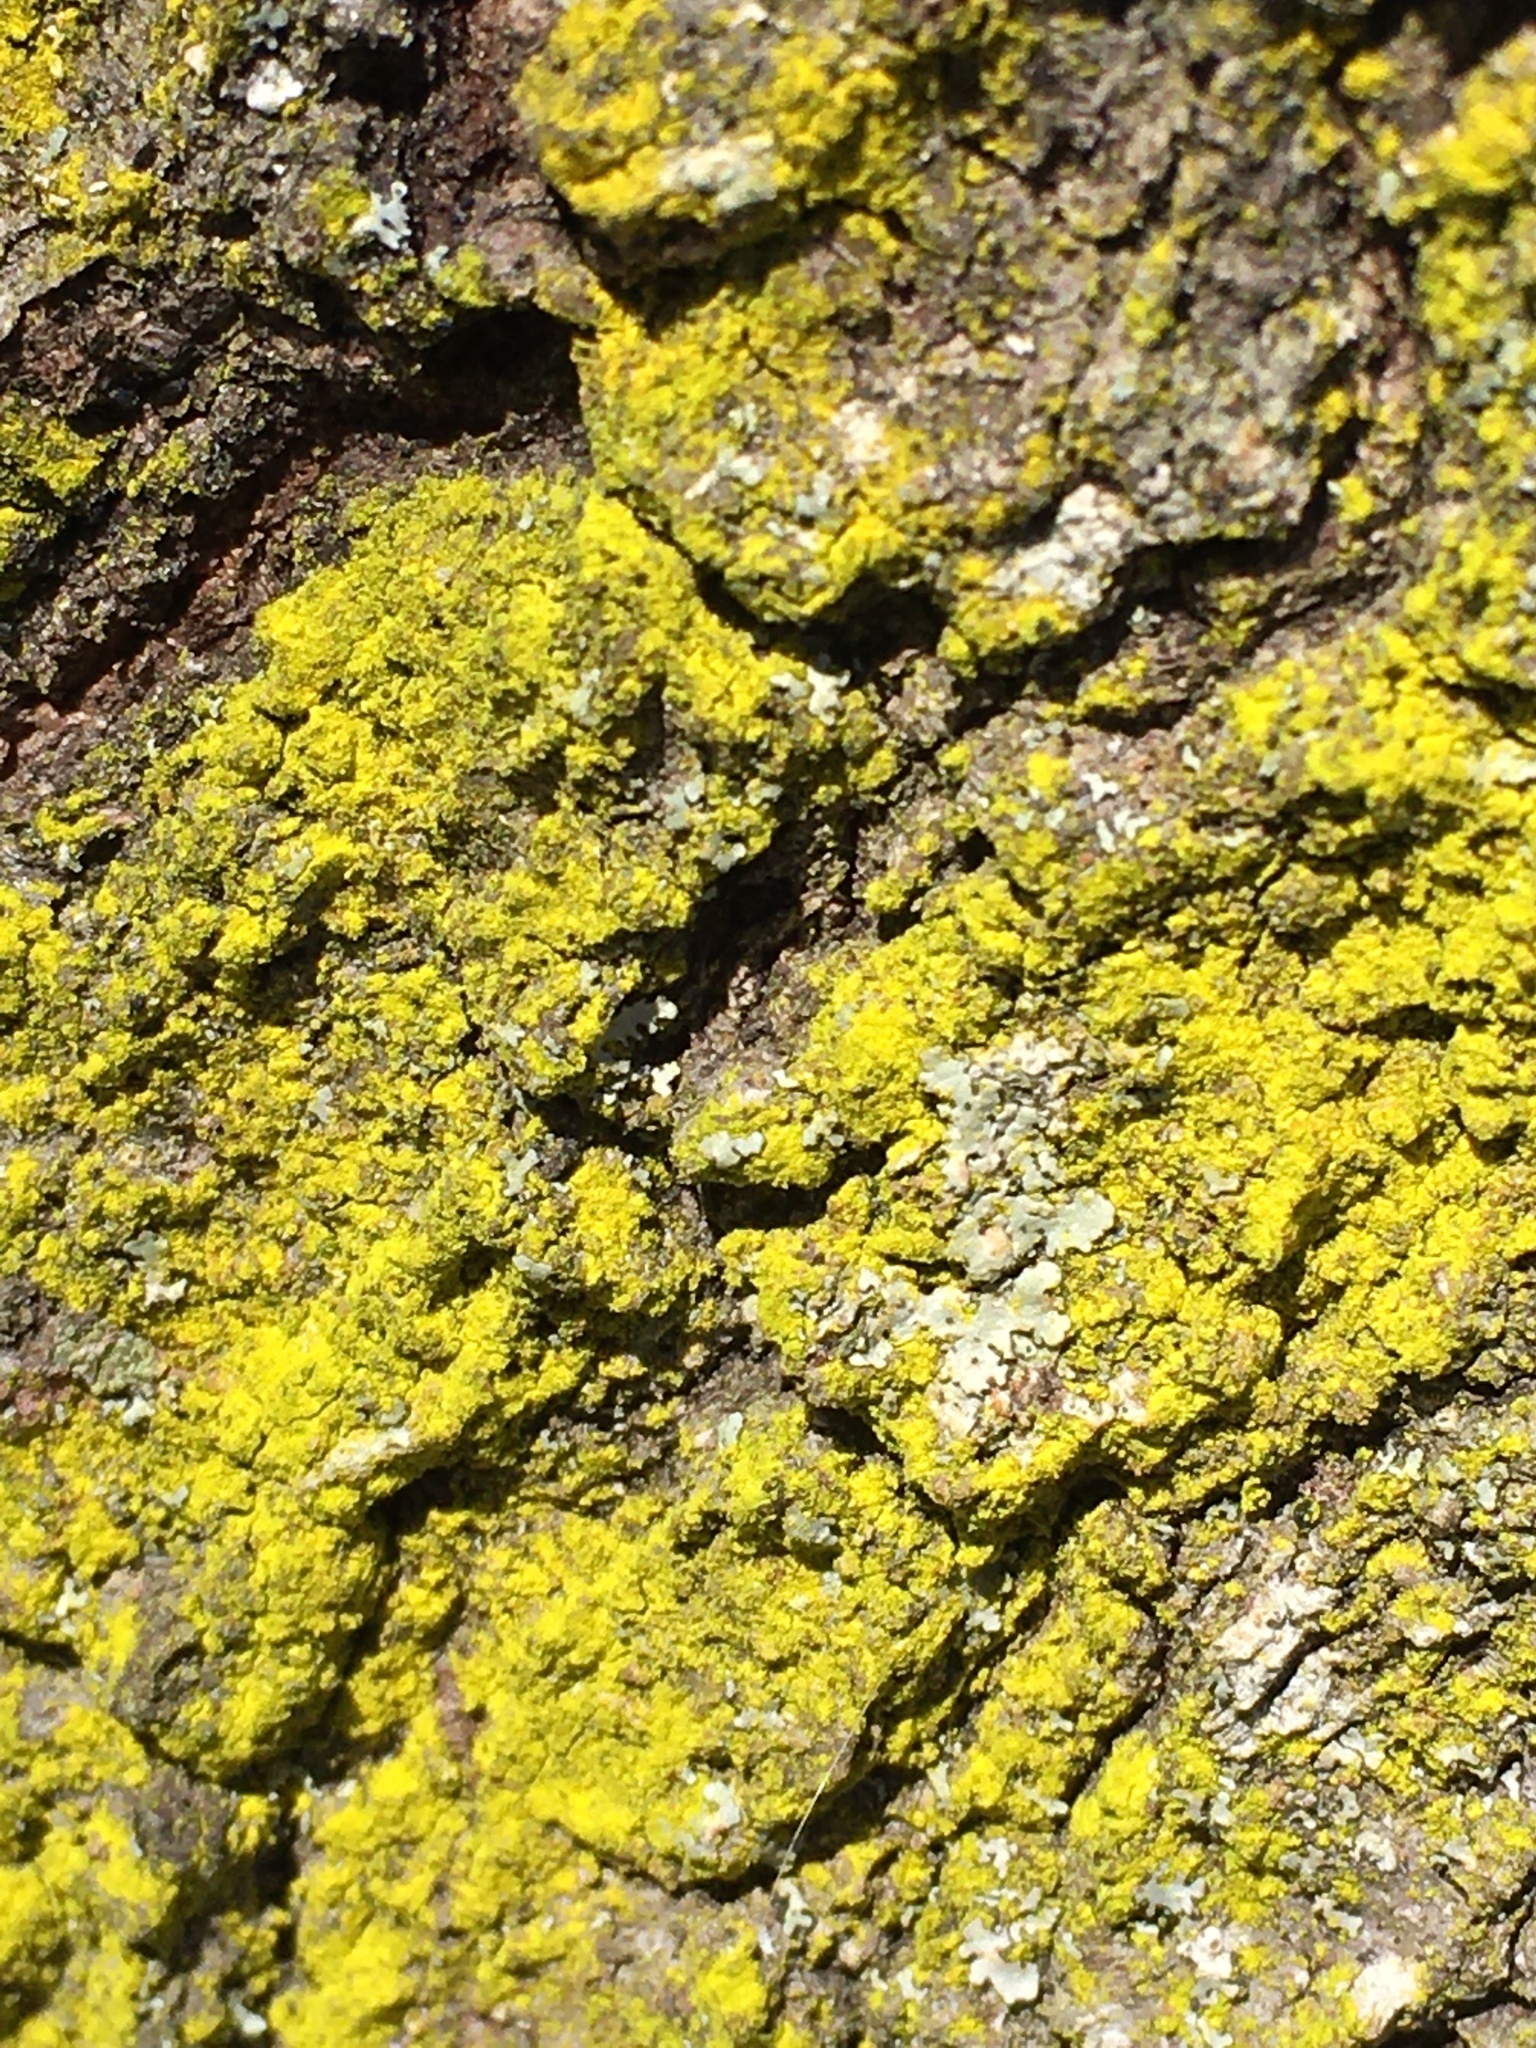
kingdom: Fungi
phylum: Ascomycota
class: Arthoniomycetes
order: Arthoniales
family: Chrysotrichaceae
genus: Chrysothrix
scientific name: Chrysothrix candelaris
